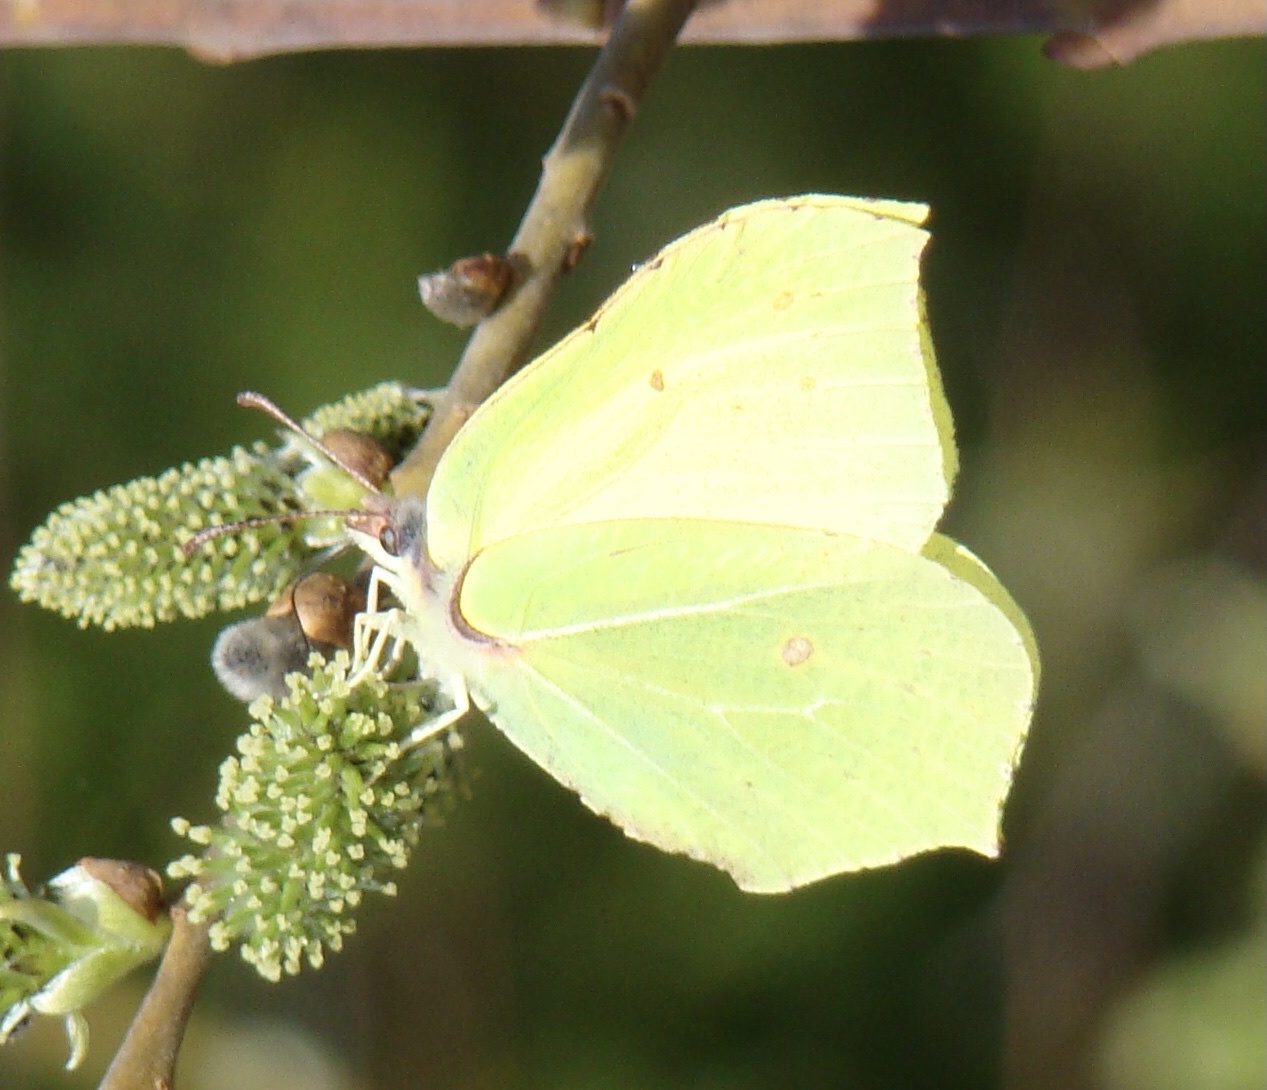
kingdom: Animalia
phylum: Arthropoda
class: Insecta
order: Lepidoptera
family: Pieridae
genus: Gonepteryx
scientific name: Gonepteryx rhamni
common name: Brimstone
